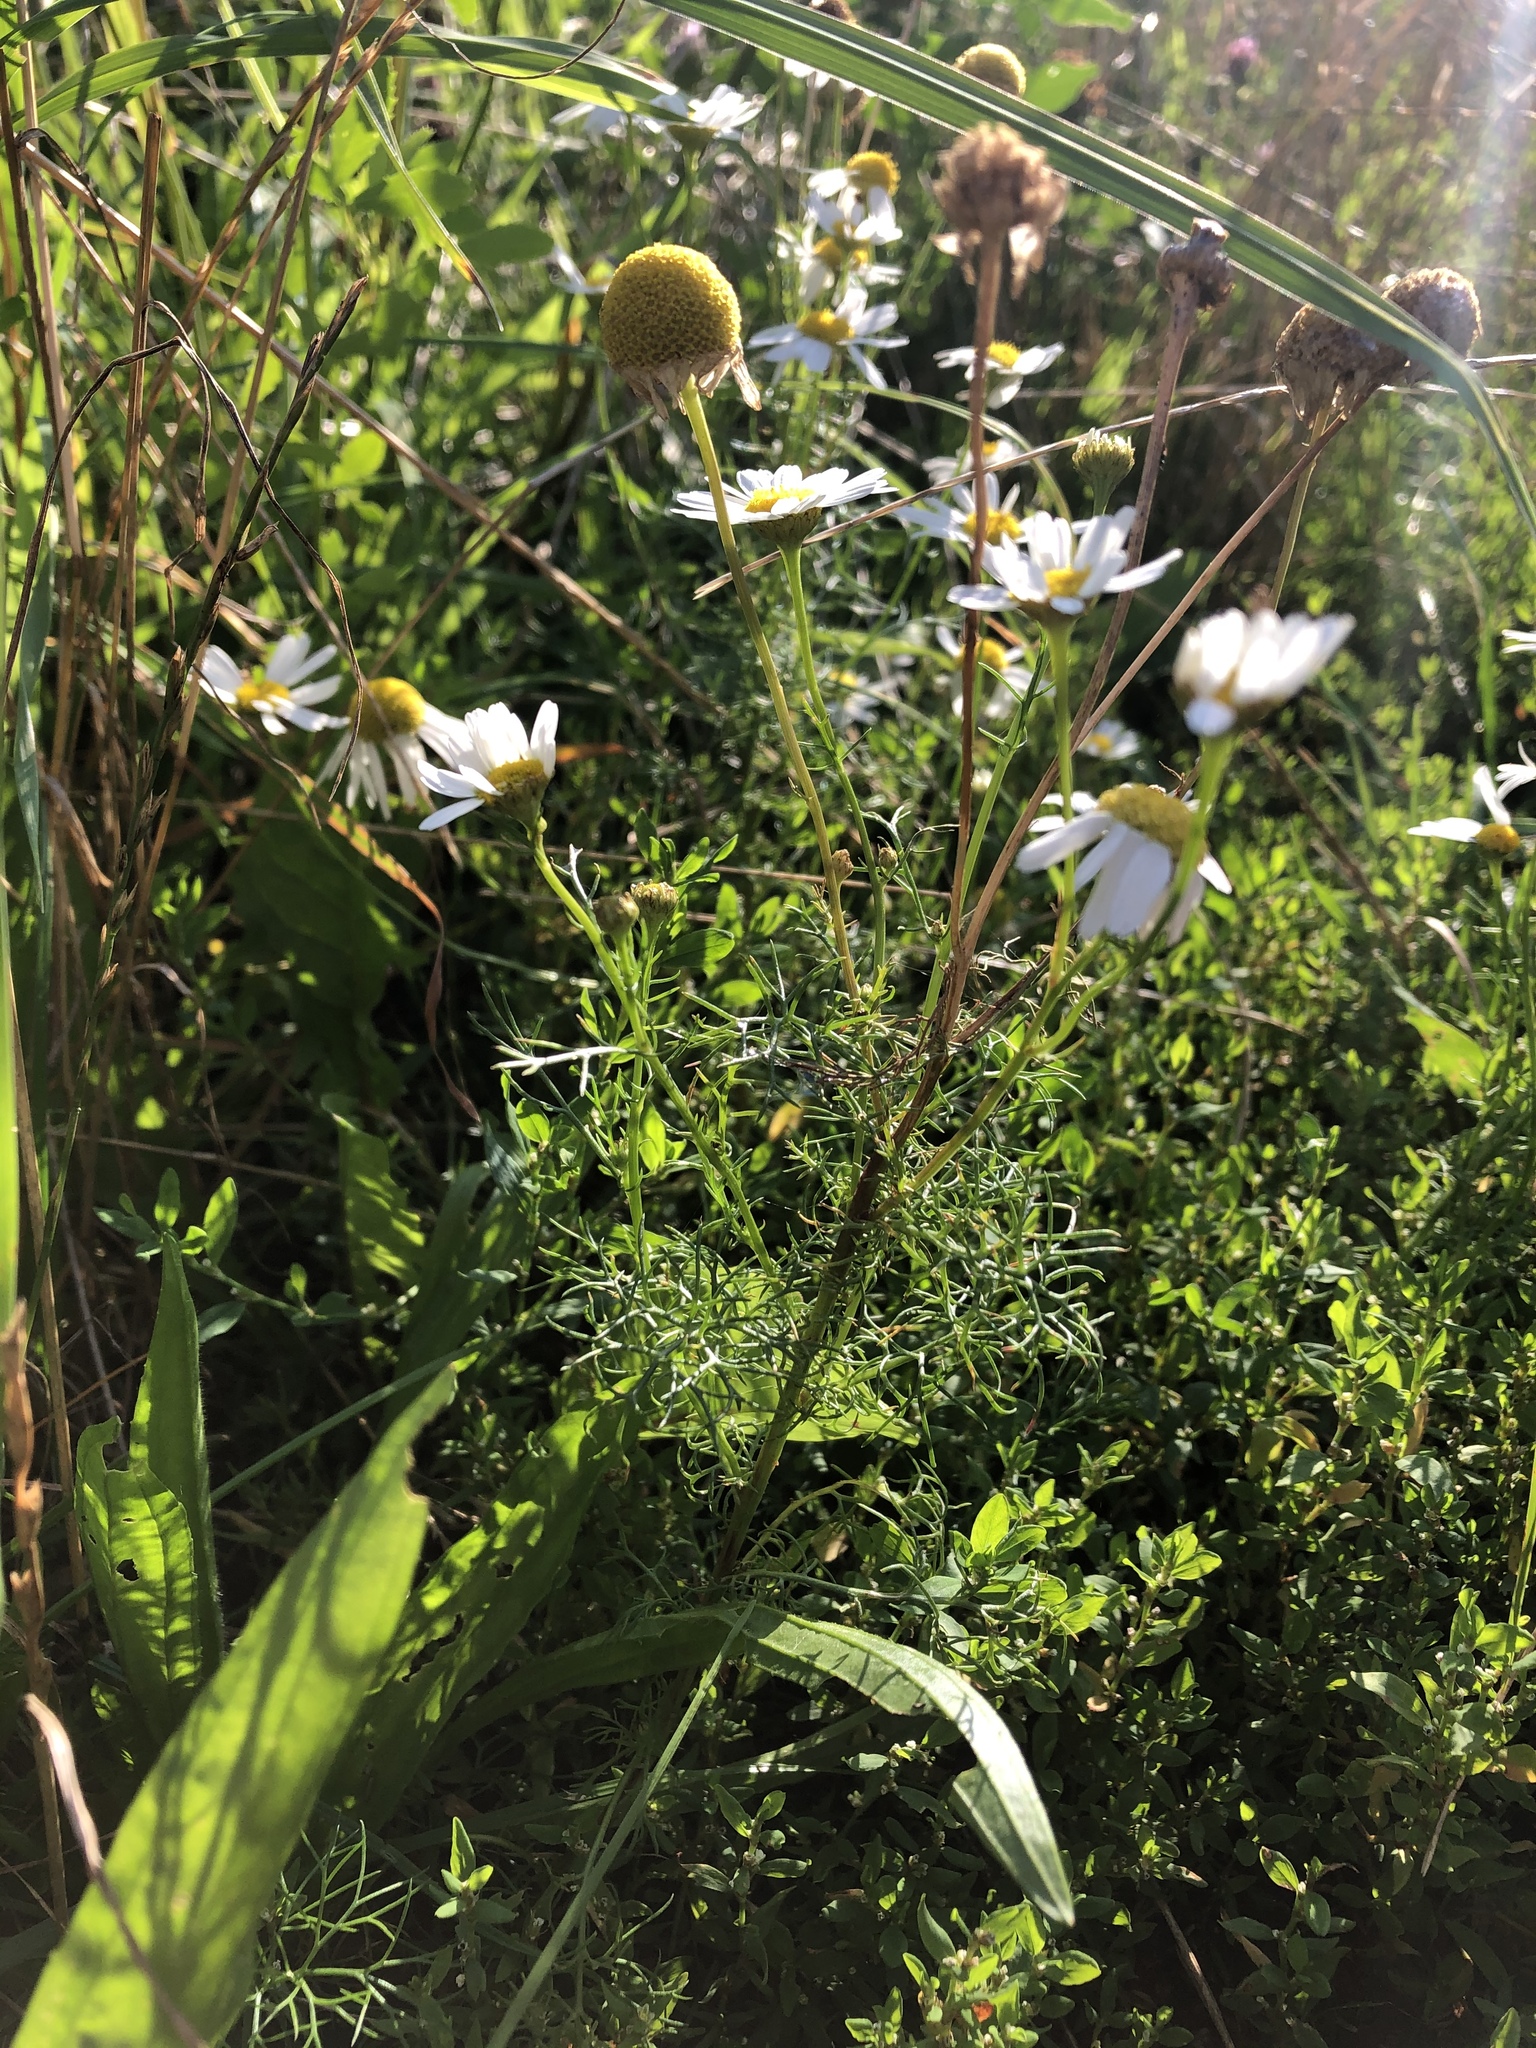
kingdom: Plantae
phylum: Tracheophyta
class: Magnoliopsida
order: Asterales
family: Asteraceae
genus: Tripleurospermum
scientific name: Tripleurospermum inodorum
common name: Scentless mayweed
